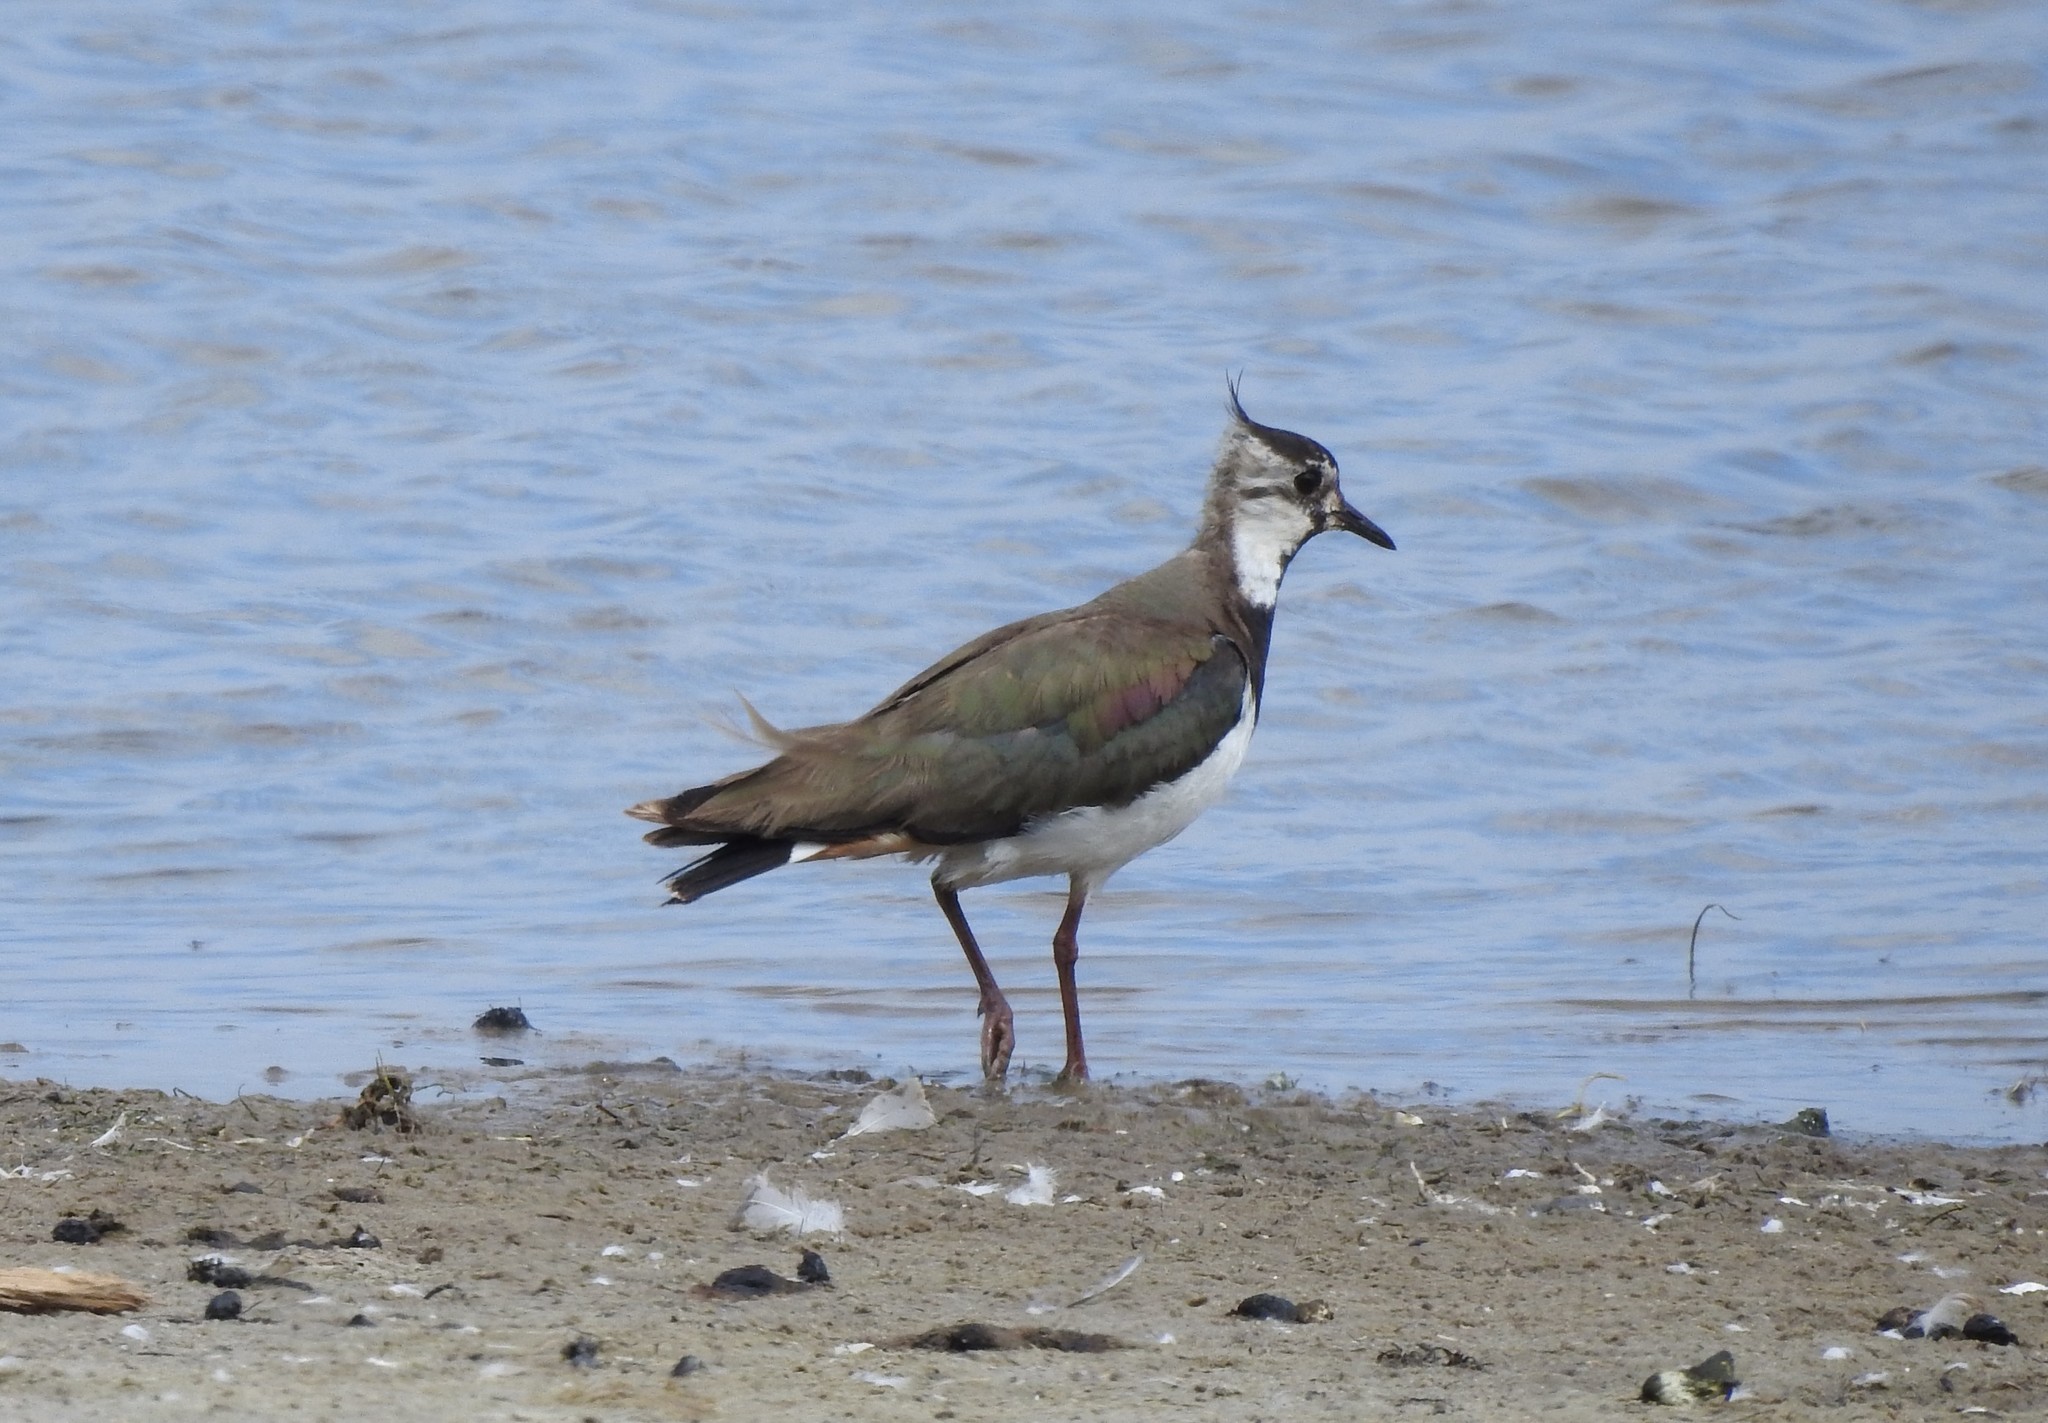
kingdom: Animalia
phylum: Chordata
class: Aves
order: Charadriiformes
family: Charadriidae
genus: Vanellus
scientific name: Vanellus vanellus
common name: Northern lapwing
